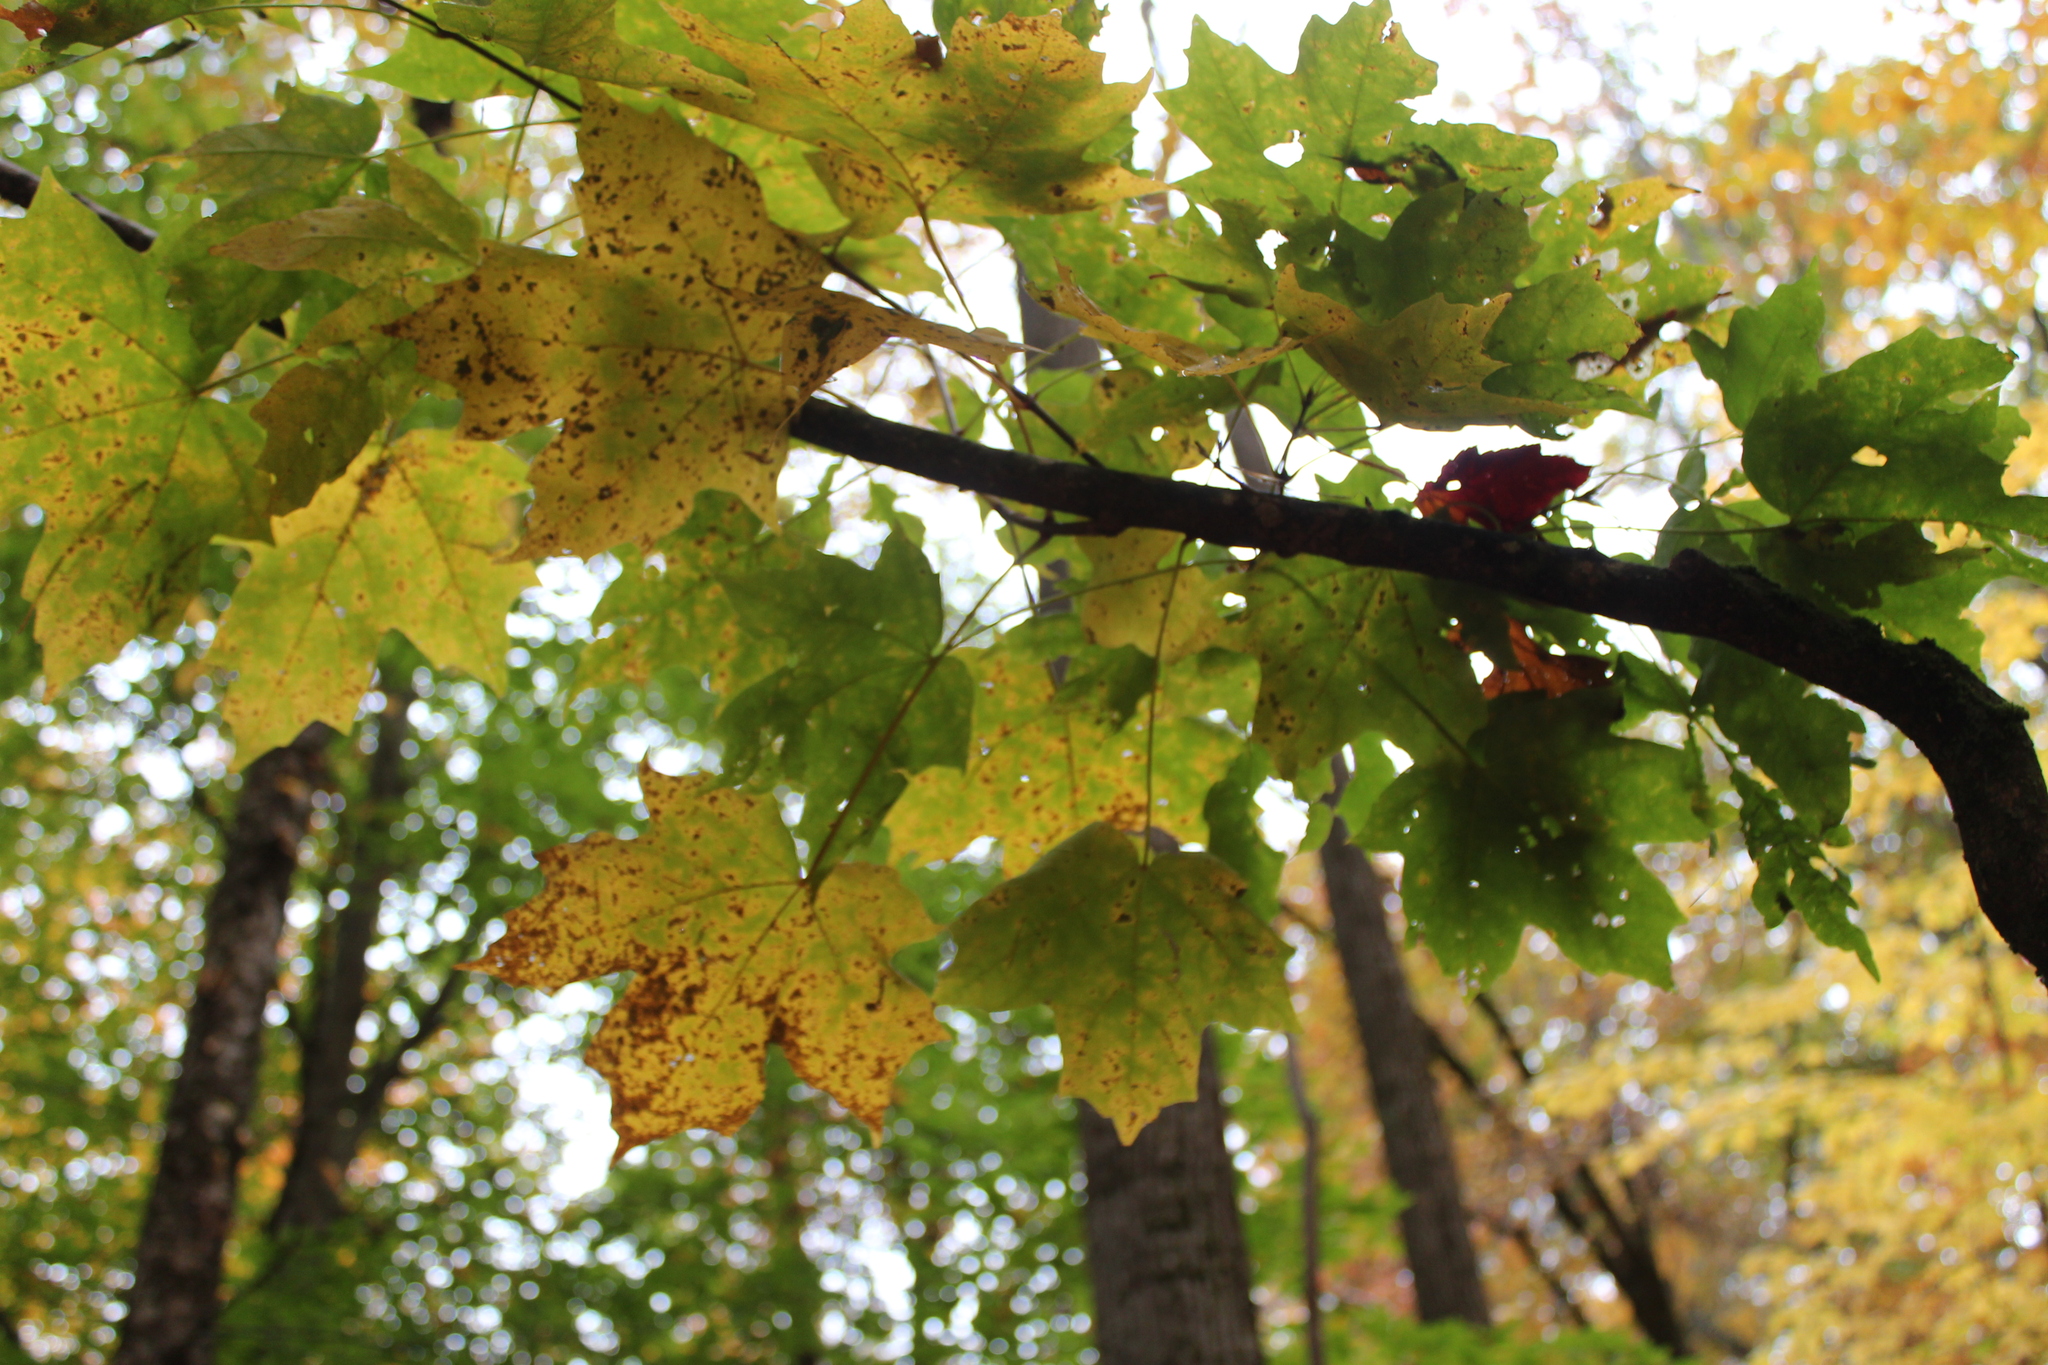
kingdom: Plantae
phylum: Tracheophyta
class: Magnoliopsida
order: Sapindales
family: Sapindaceae
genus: Acer
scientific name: Acer saccharum
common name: Sugar maple
